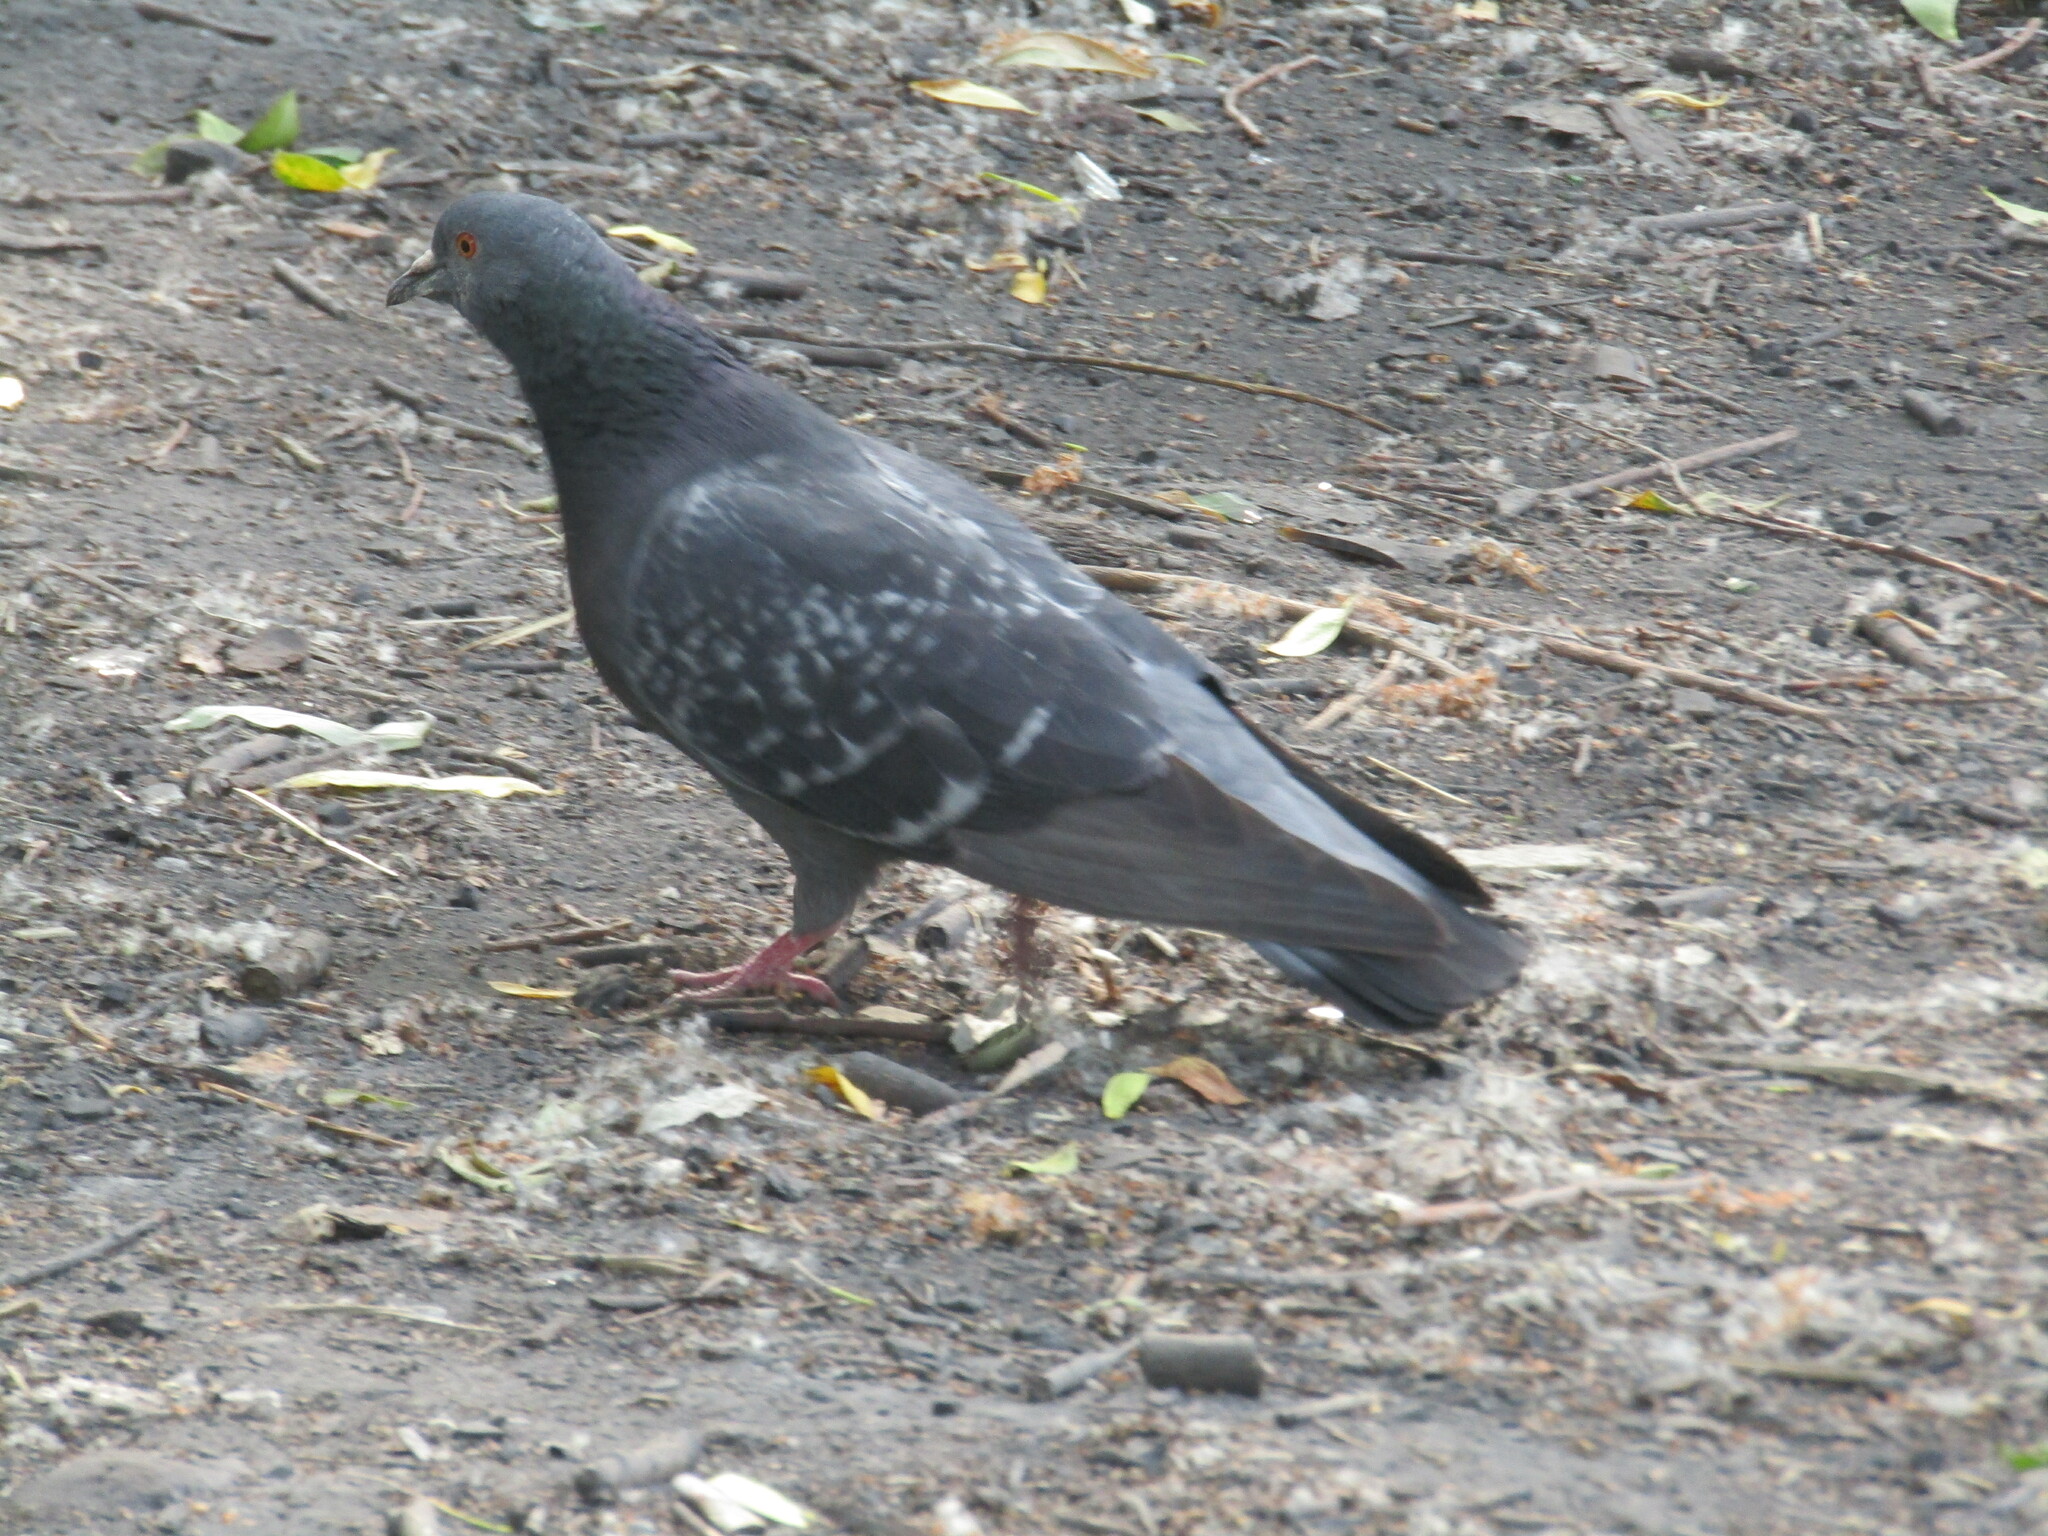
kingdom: Animalia
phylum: Chordata
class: Aves
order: Columbiformes
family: Columbidae
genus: Columba
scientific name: Columba livia
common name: Rock pigeon
